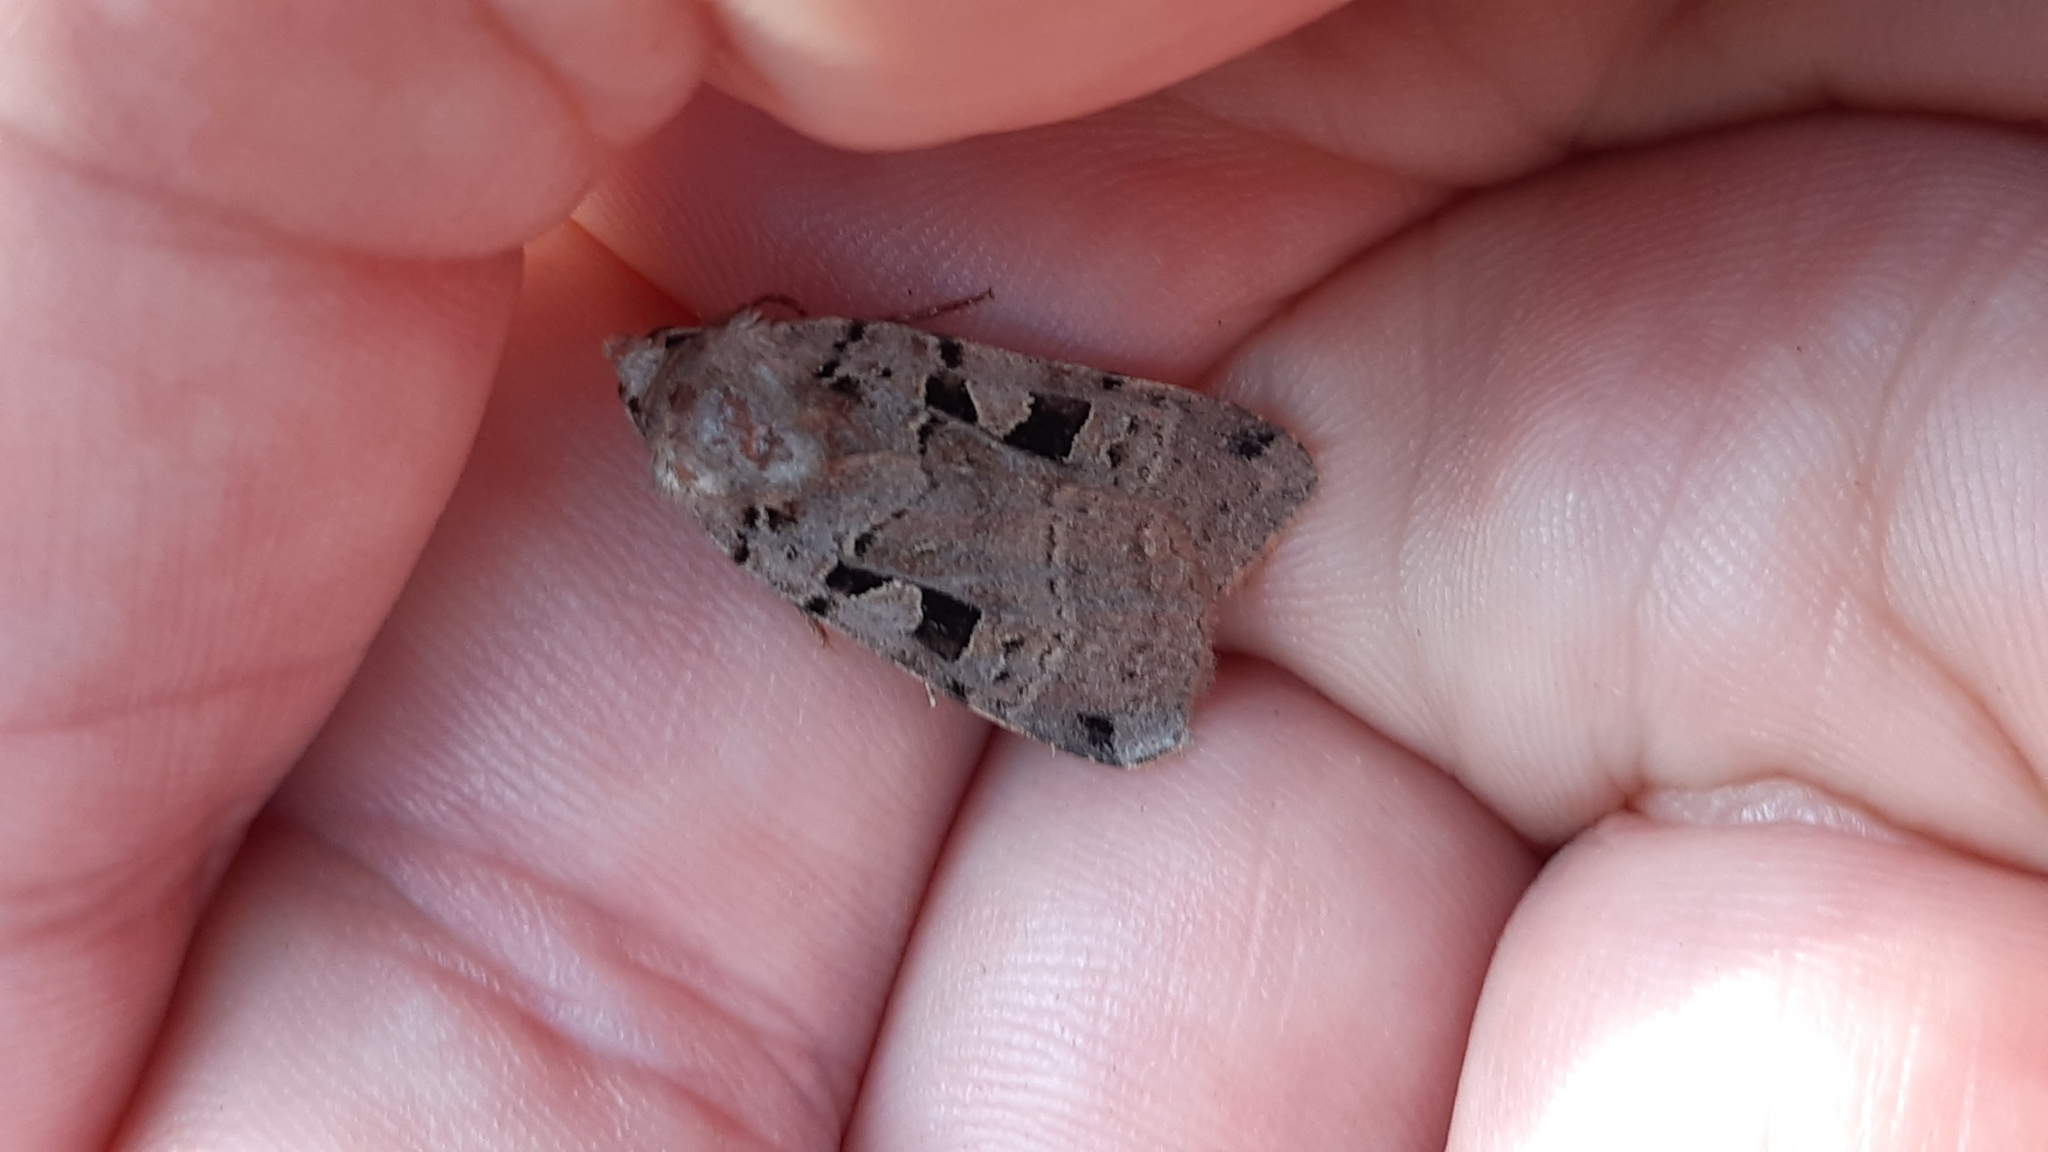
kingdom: Animalia
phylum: Arthropoda
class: Insecta
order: Lepidoptera
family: Noctuidae
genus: Xestia
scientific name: Xestia triangulum
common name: Double square-spot
